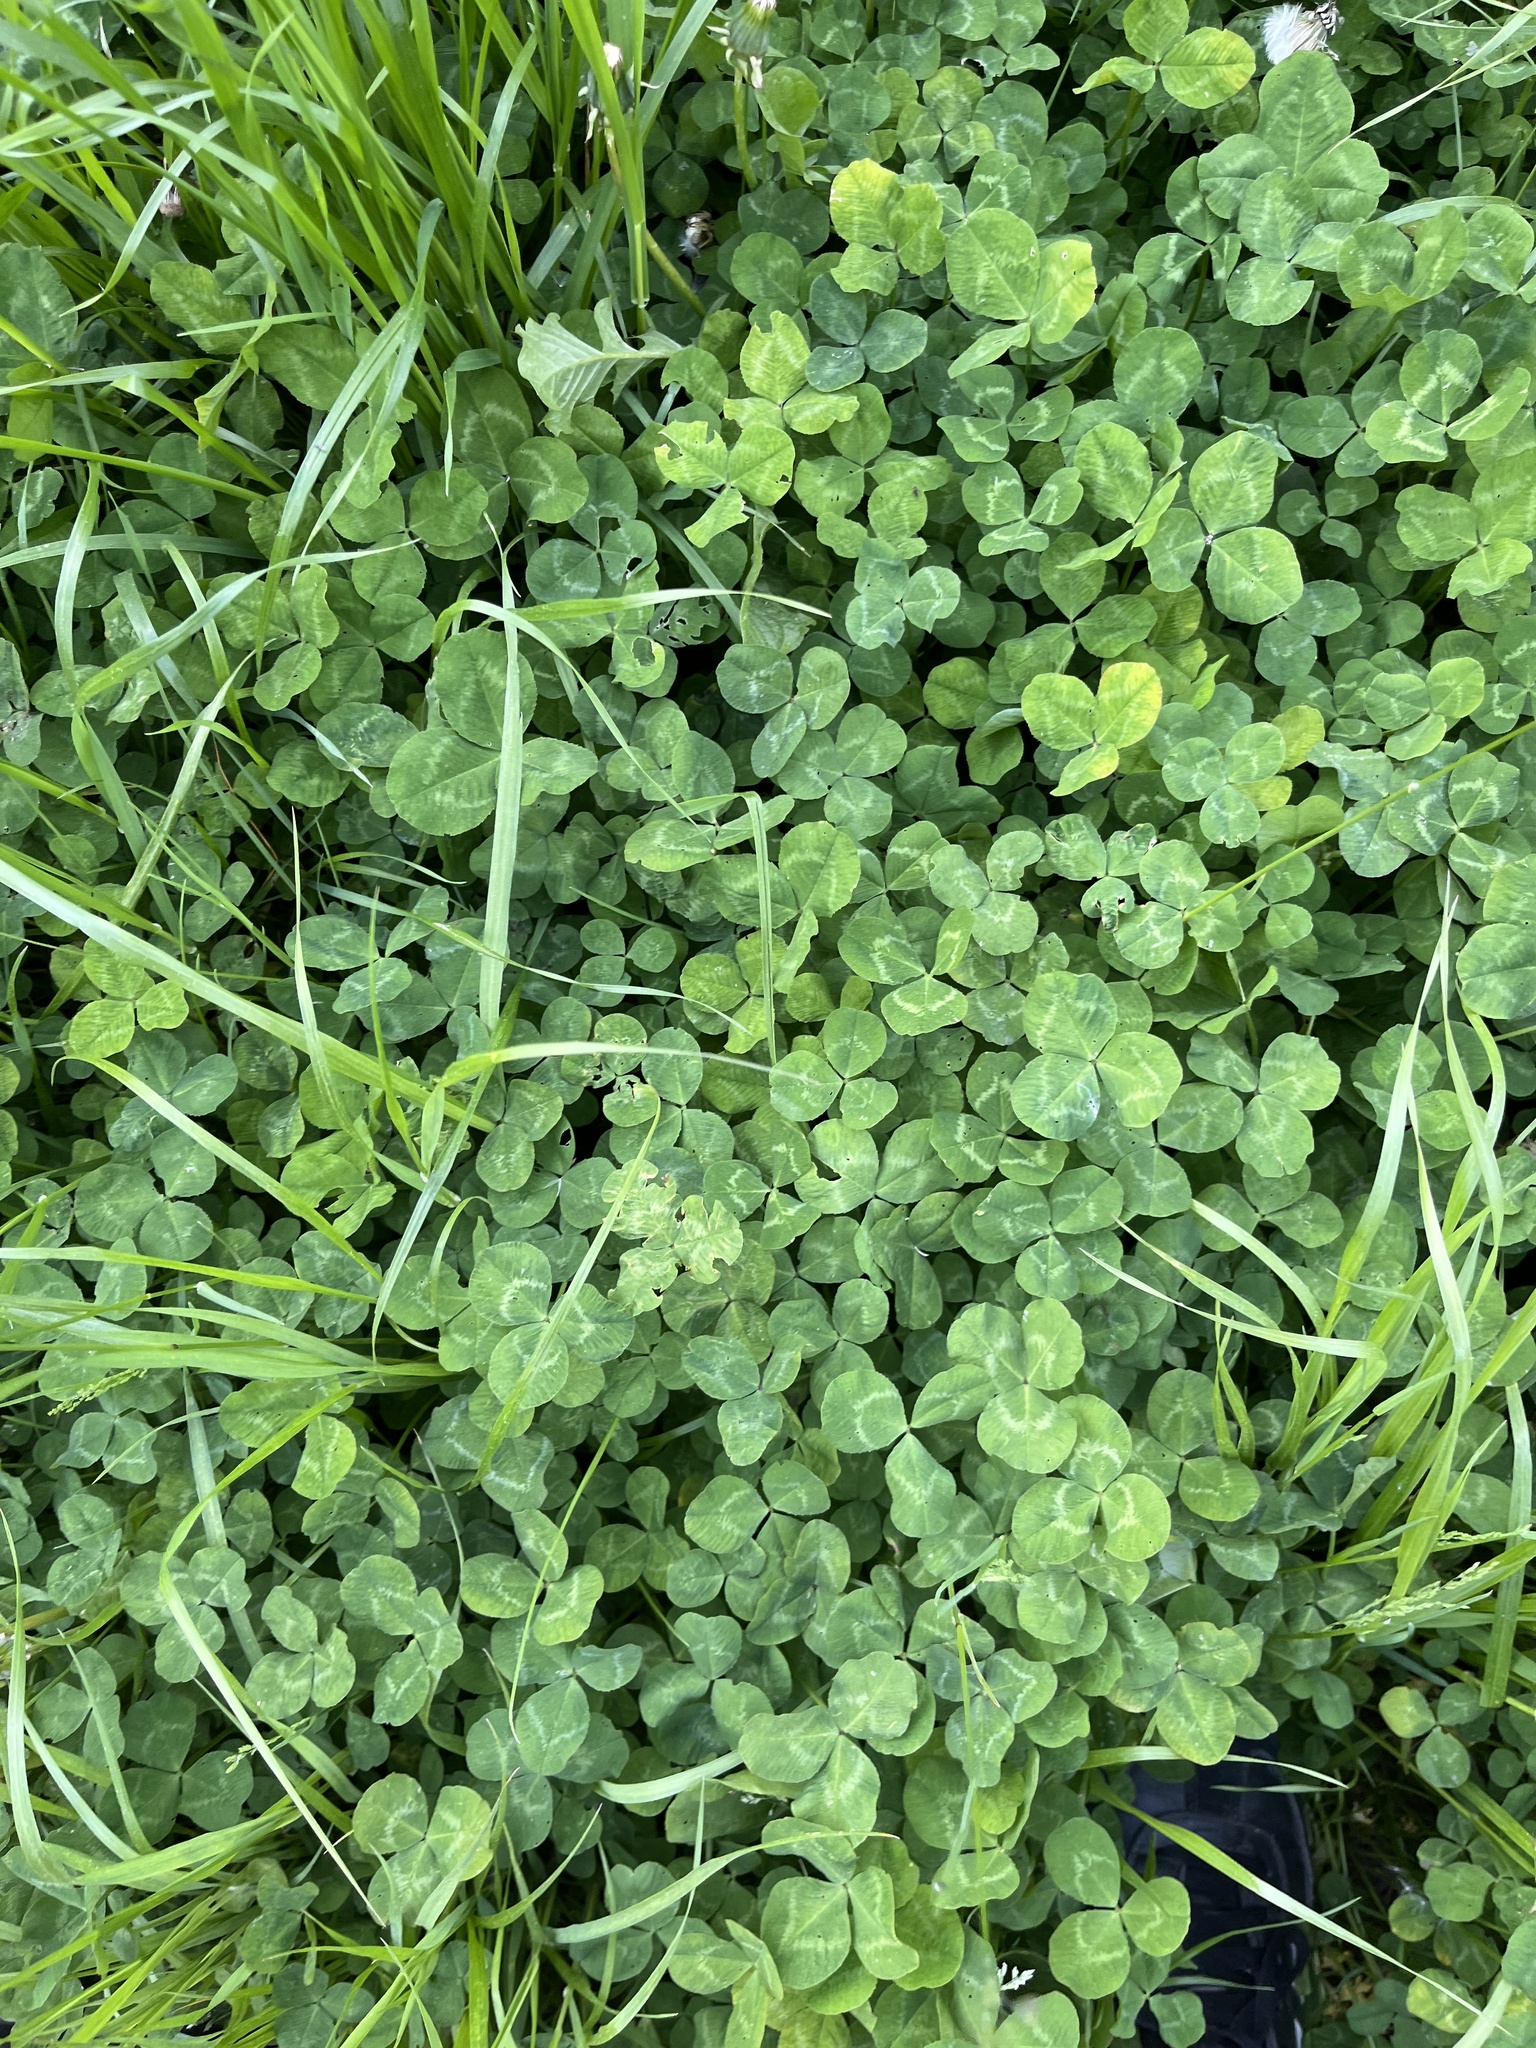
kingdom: Plantae
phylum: Tracheophyta
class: Magnoliopsida
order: Fabales
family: Fabaceae
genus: Trifolium
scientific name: Trifolium repens
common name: White clover
